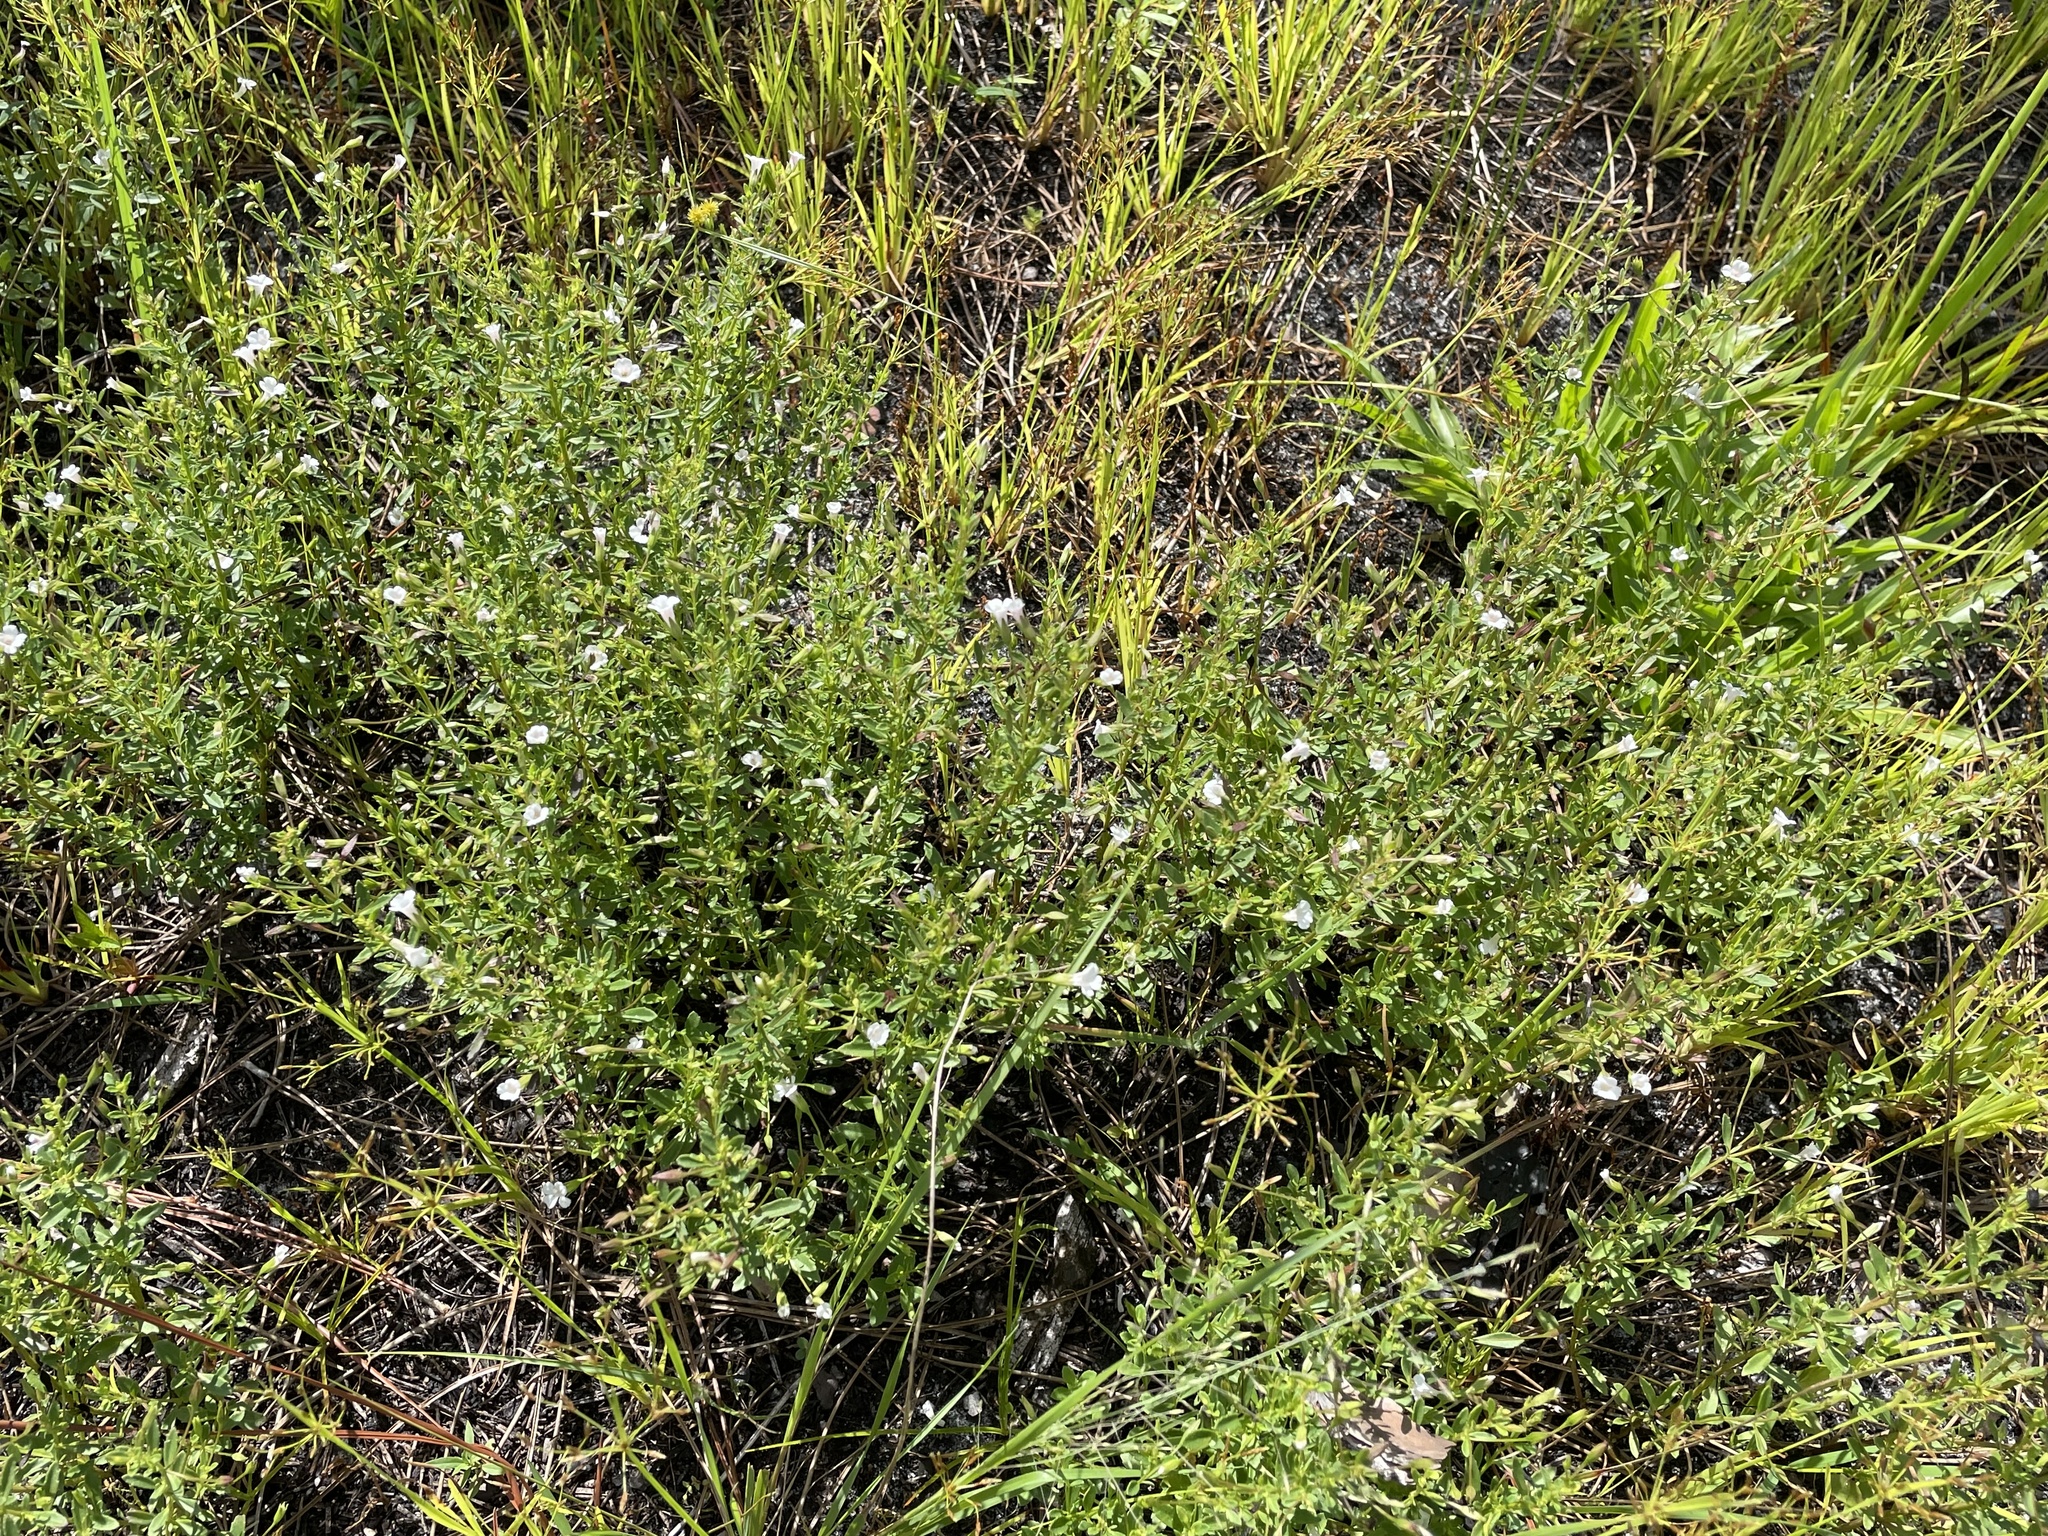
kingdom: Plantae
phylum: Tracheophyta
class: Magnoliopsida
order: Lamiales
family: Plantaginaceae
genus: Mecardonia
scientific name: Mecardonia acuminata
